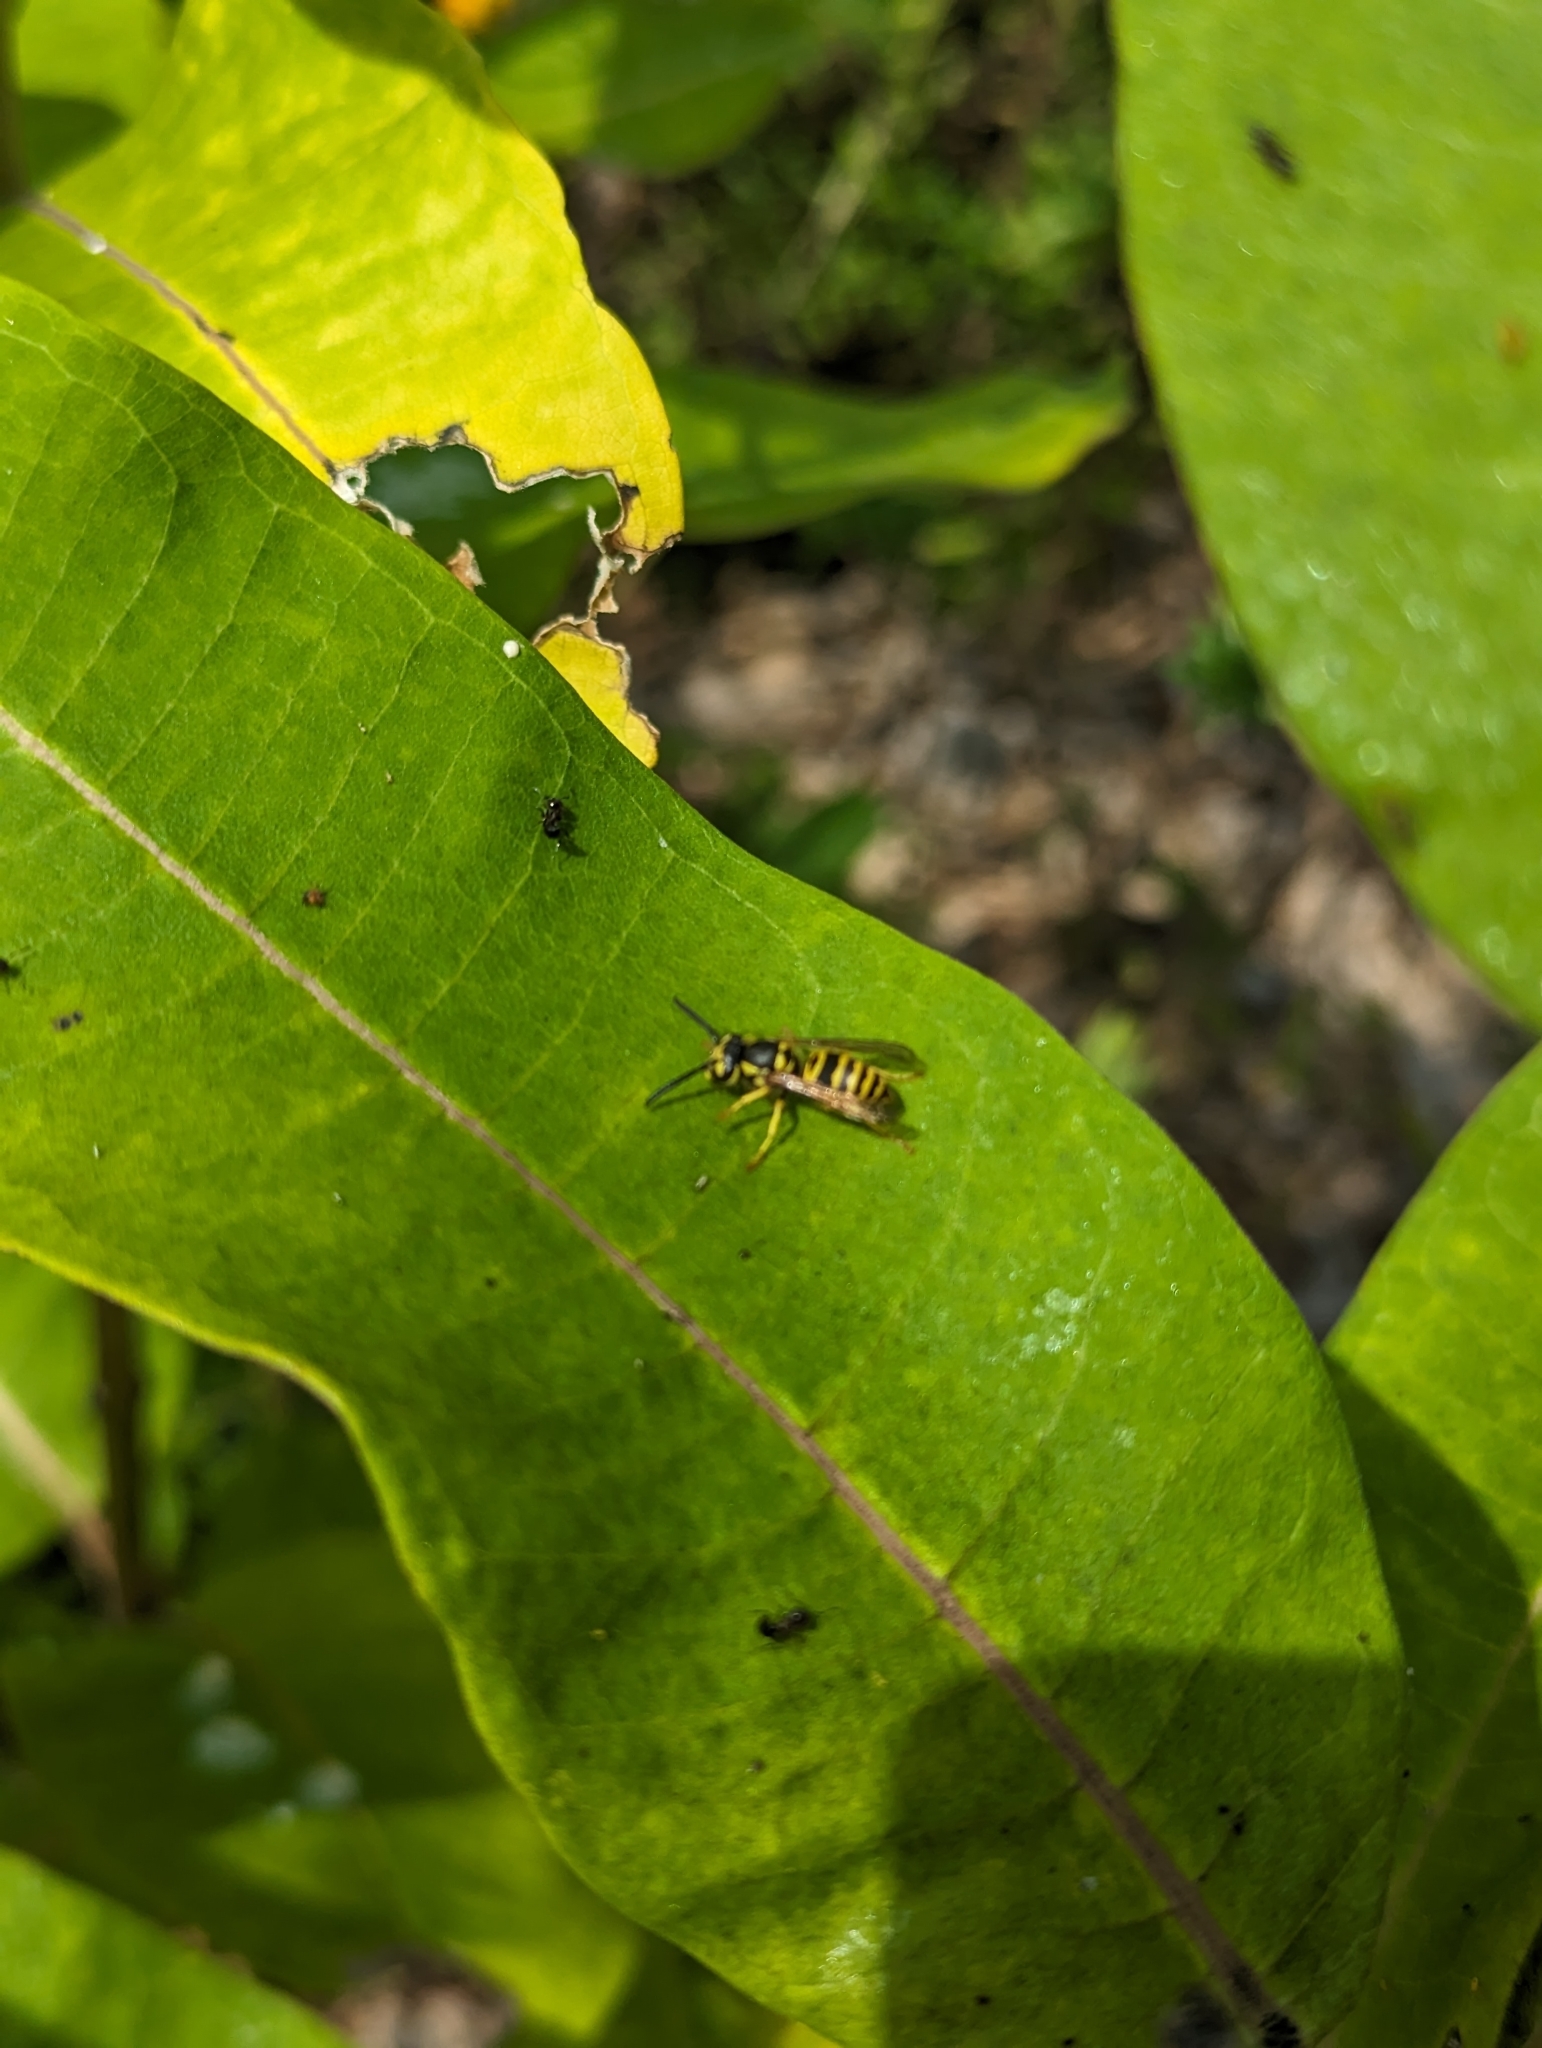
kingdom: Animalia
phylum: Arthropoda
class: Insecta
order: Hymenoptera
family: Vespidae
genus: Vespula
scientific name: Vespula maculifrons
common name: Eastern yellowjacket
